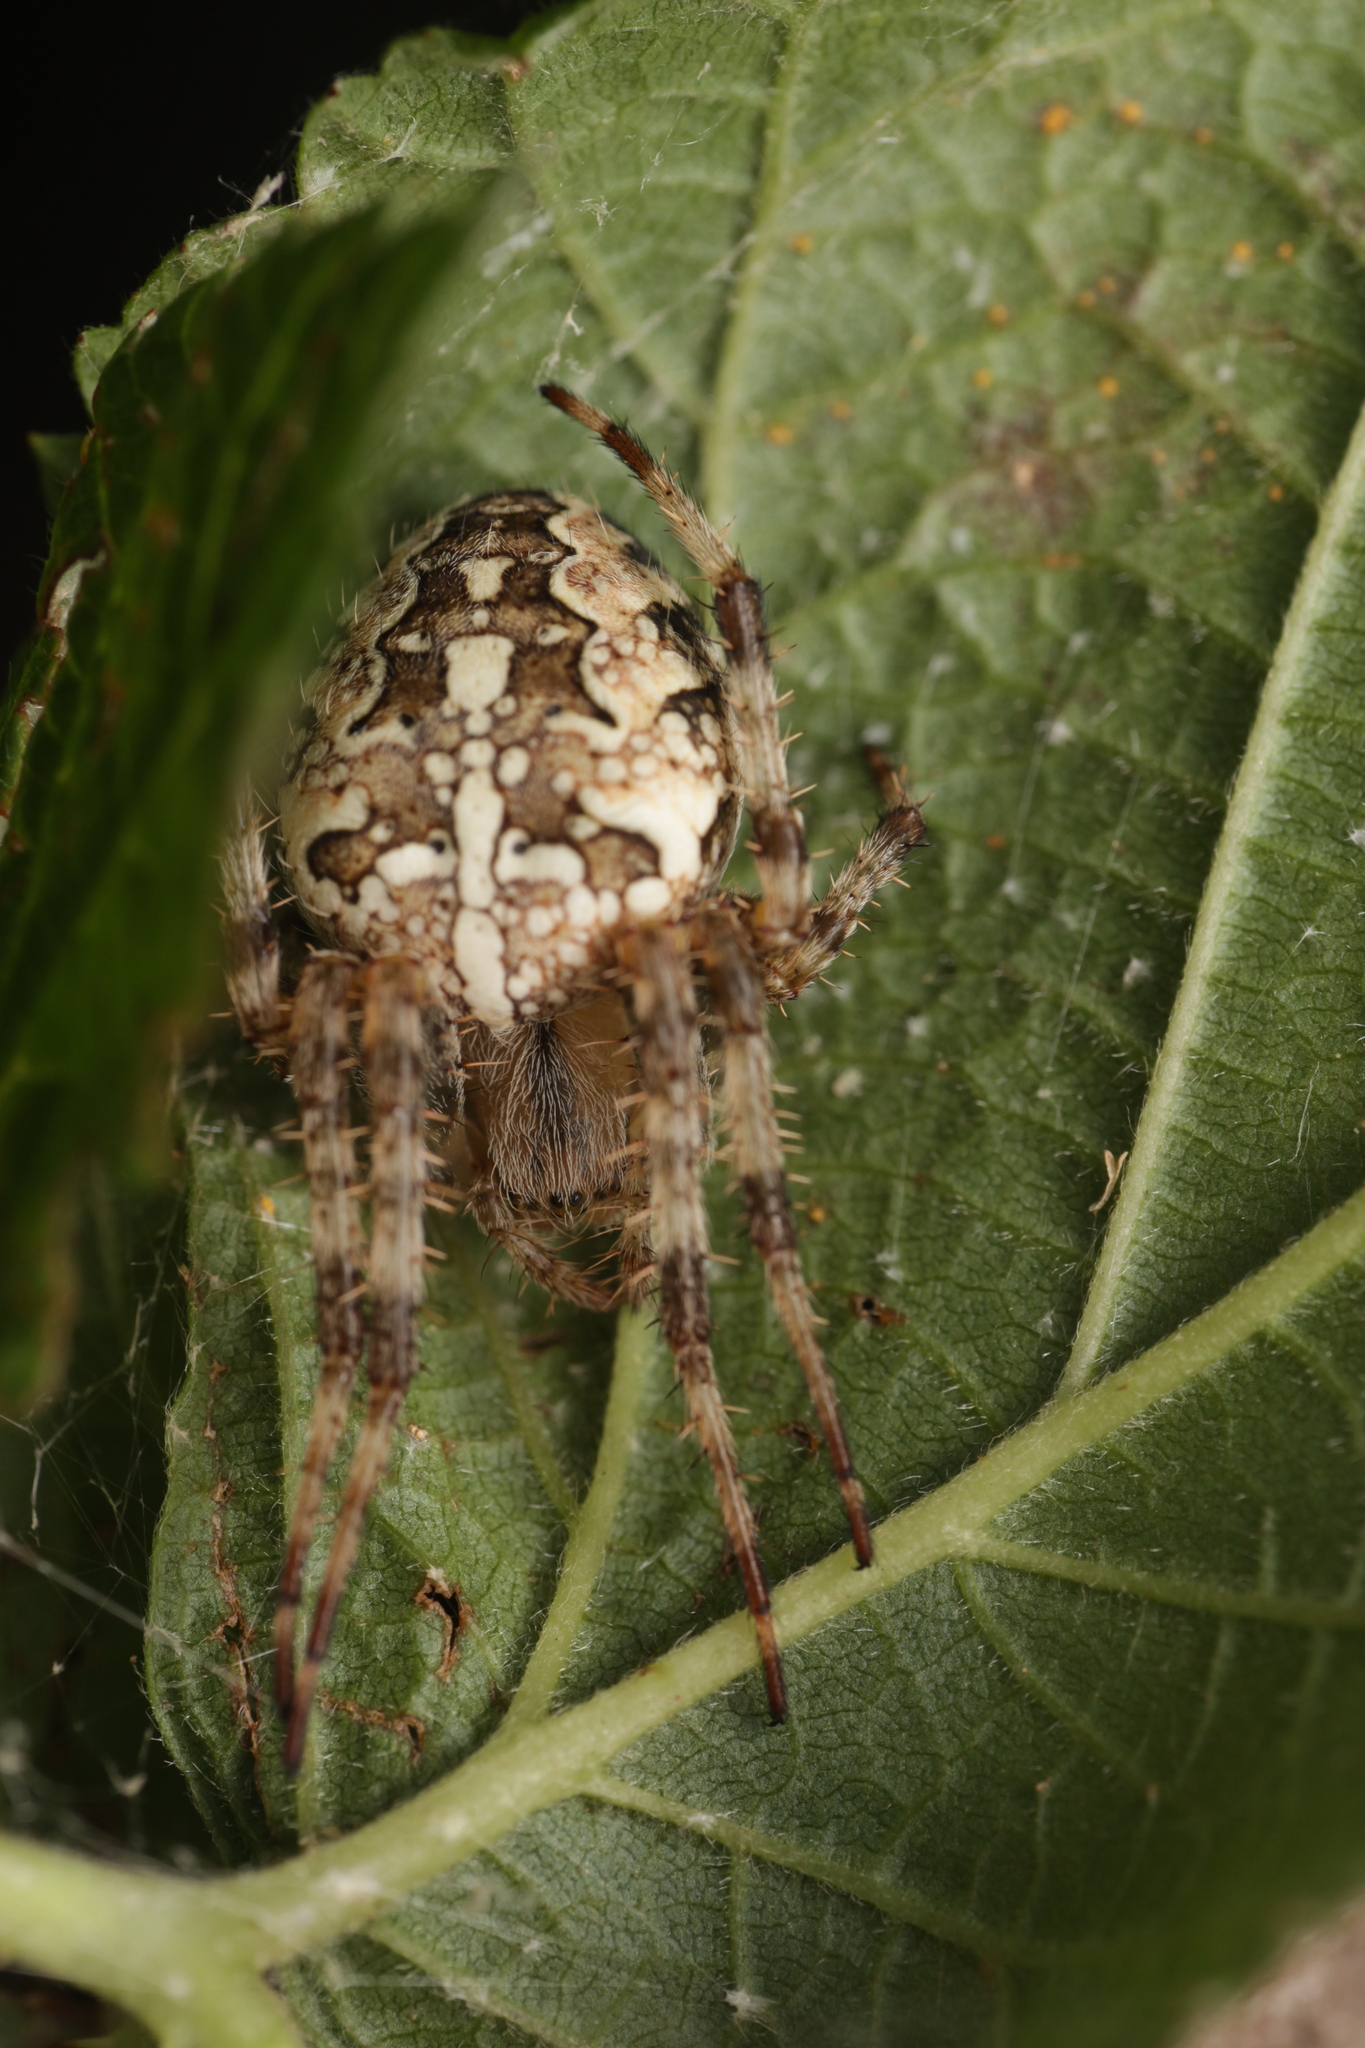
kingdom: Animalia
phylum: Arthropoda
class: Arachnida
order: Araneae
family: Araneidae
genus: Araneus
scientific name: Araneus diadematus
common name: Cross orbweaver
